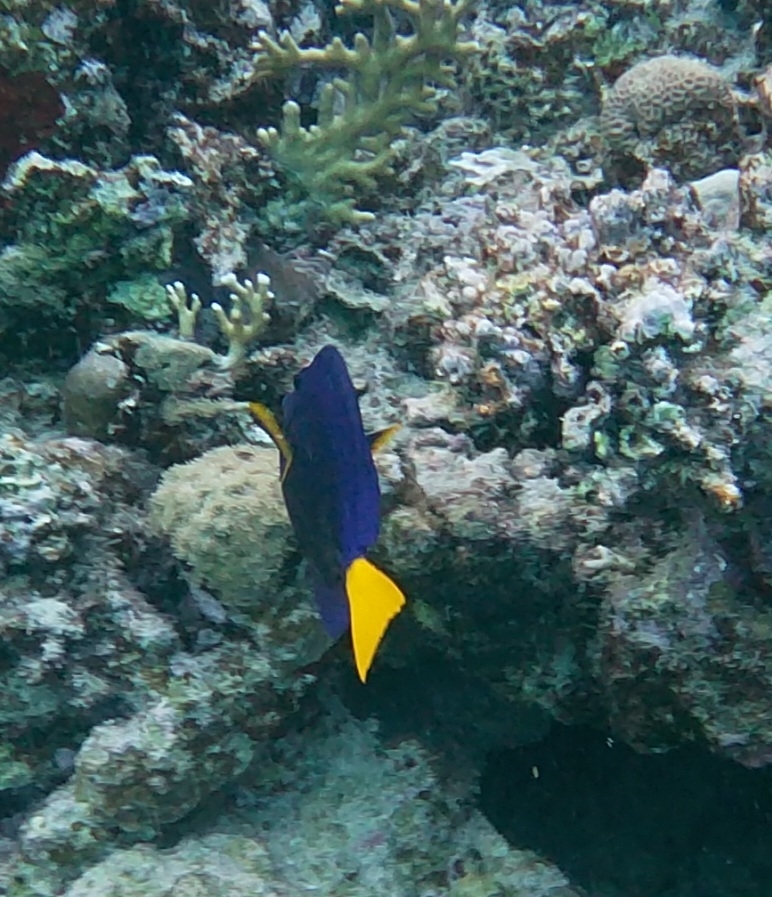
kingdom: Animalia
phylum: Chordata
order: Perciformes
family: Acanthuridae
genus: Zebrasoma
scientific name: Zebrasoma xanthurum
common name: Purple tang
